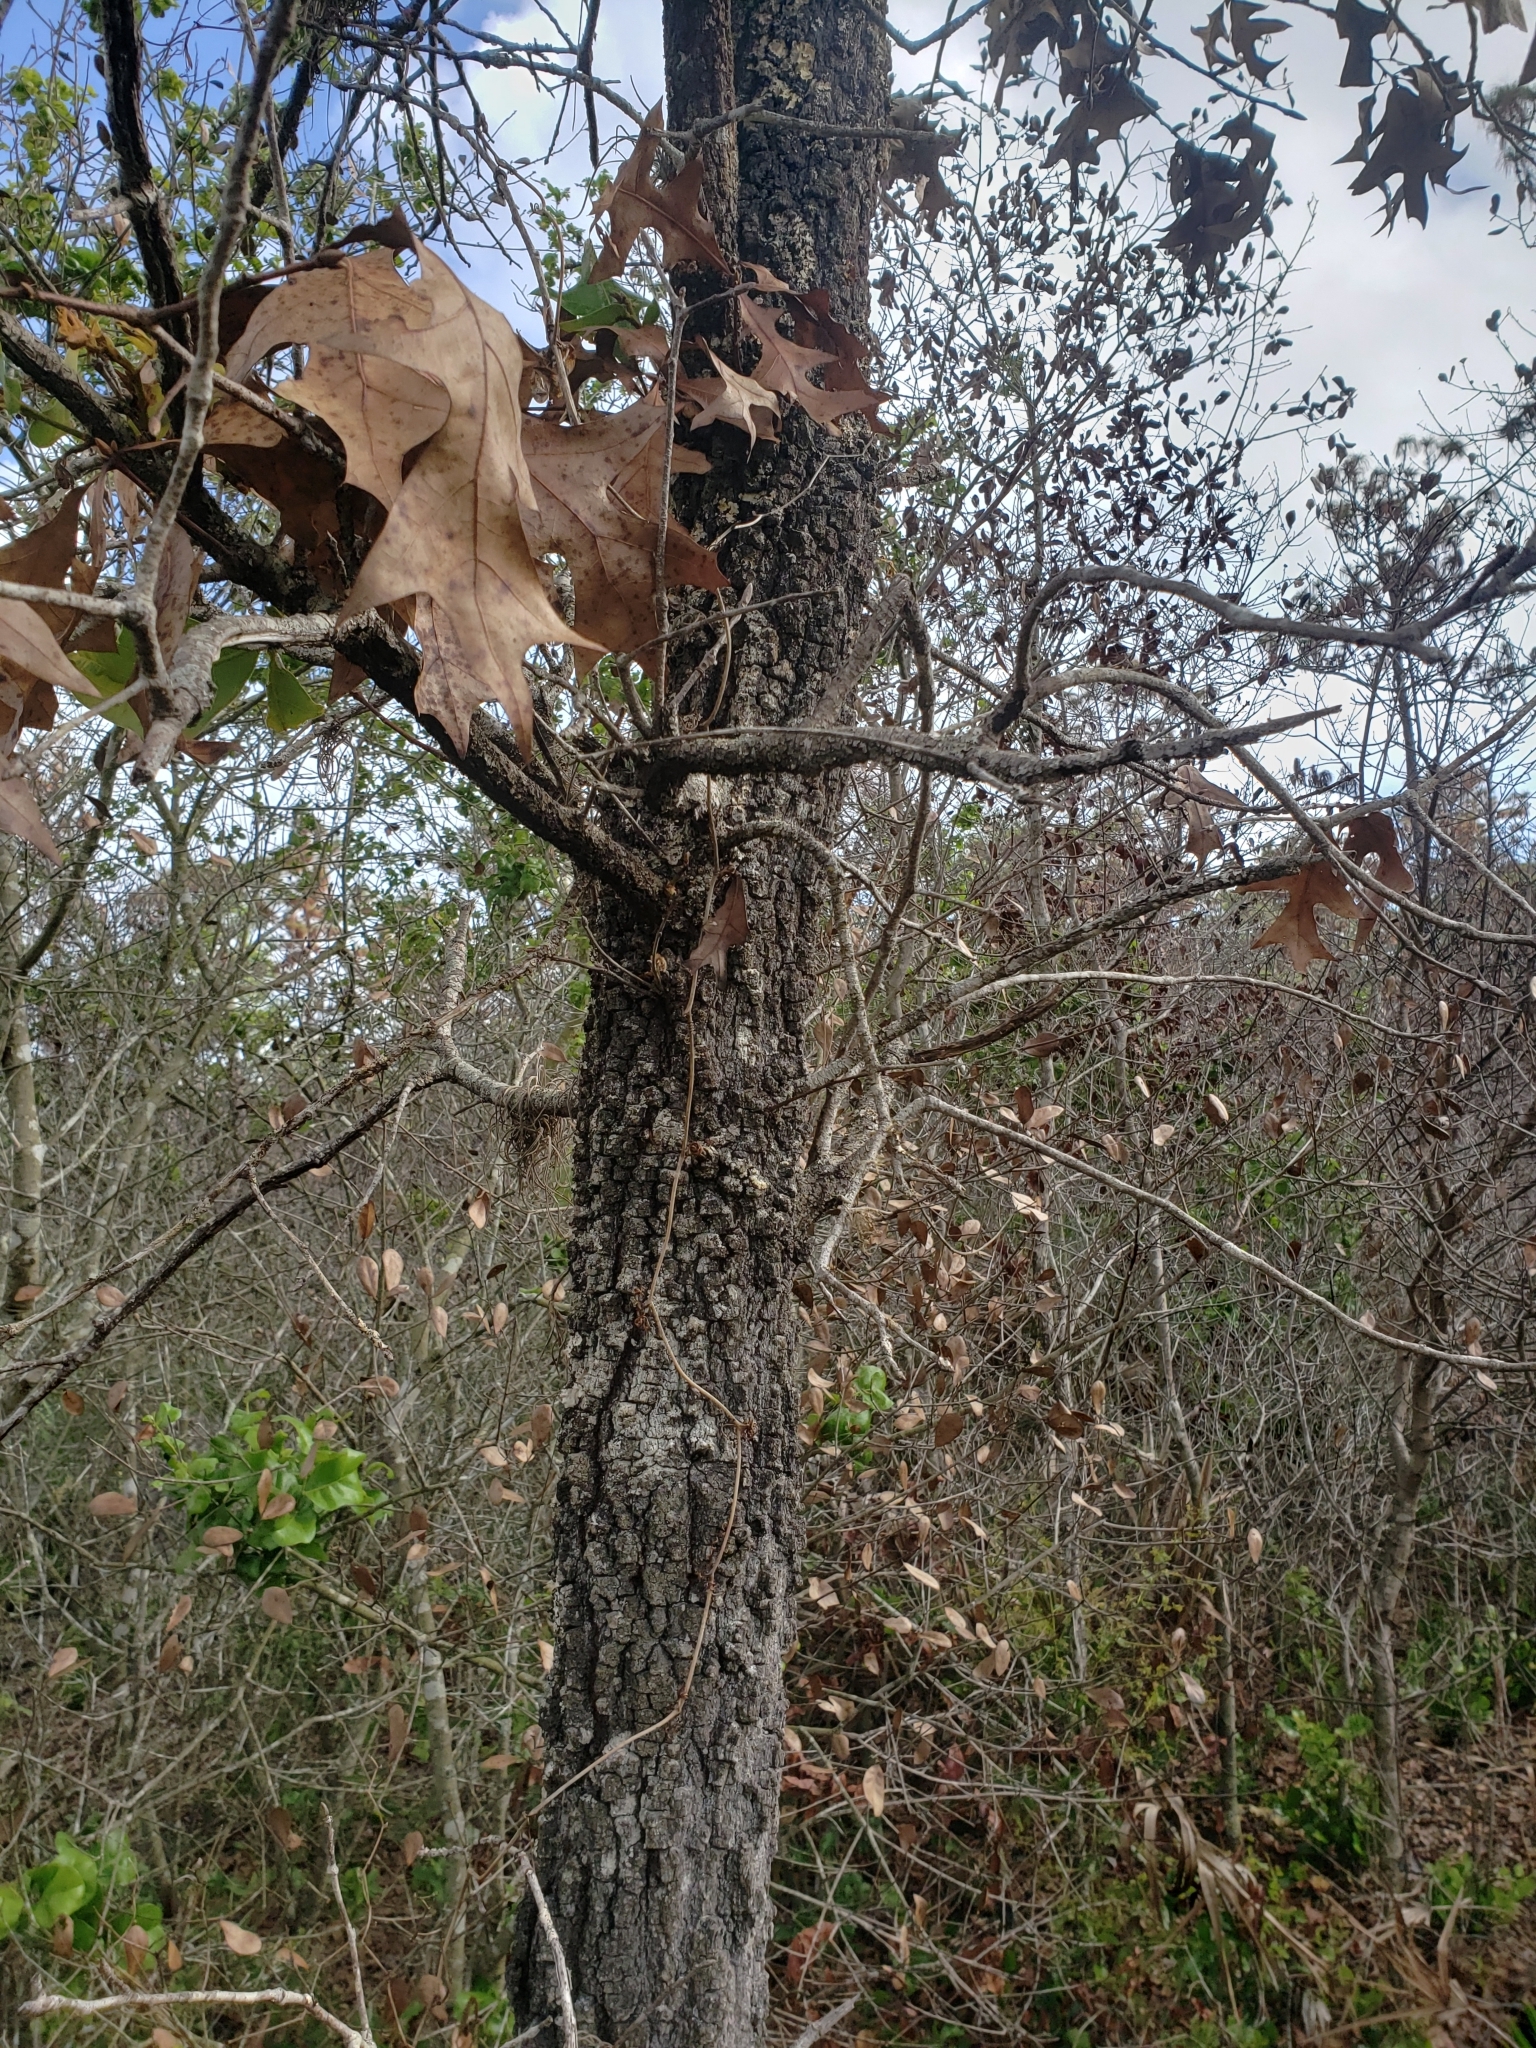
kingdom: Plantae
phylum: Tracheophyta
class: Magnoliopsida
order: Fagales
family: Fagaceae
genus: Quercus
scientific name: Quercus laevis
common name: Turkey oak
